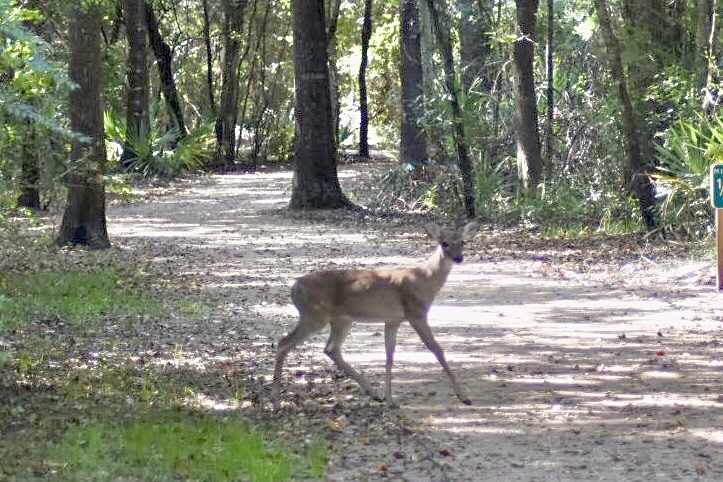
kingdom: Animalia
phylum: Chordata
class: Mammalia
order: Artiodactyla
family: Cervidae
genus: Odocoileus
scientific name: Odocoileus virginianus
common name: White-tailed deer
